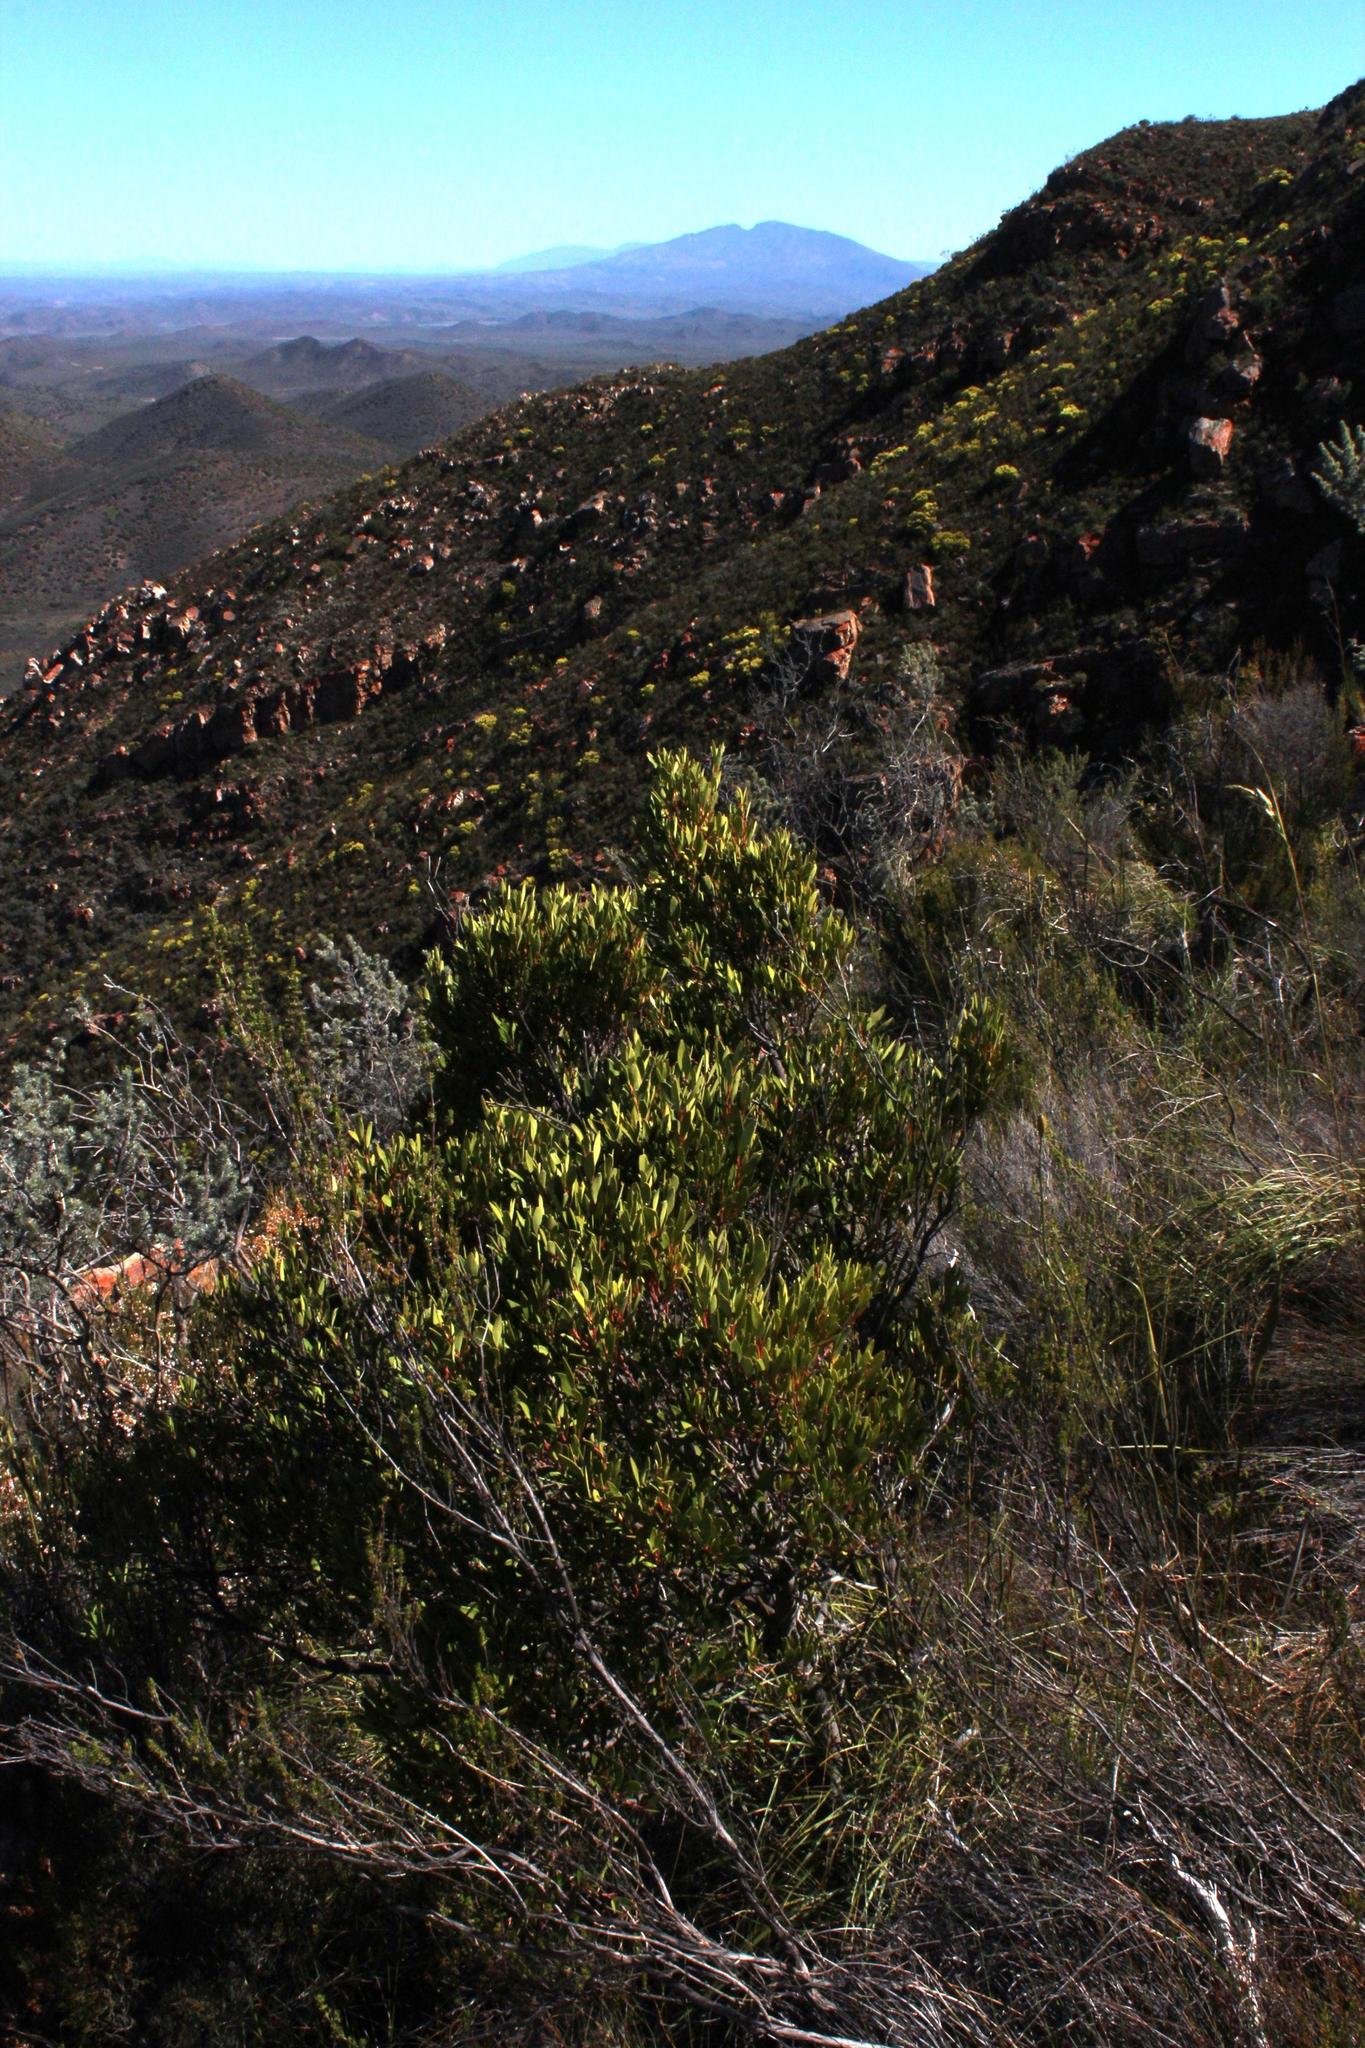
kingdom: Plantae
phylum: Tracheophyta
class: Magnoliopsida
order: Celastrales
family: Celastraceae
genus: Gymnosporia
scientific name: Gymnosporia laurina
